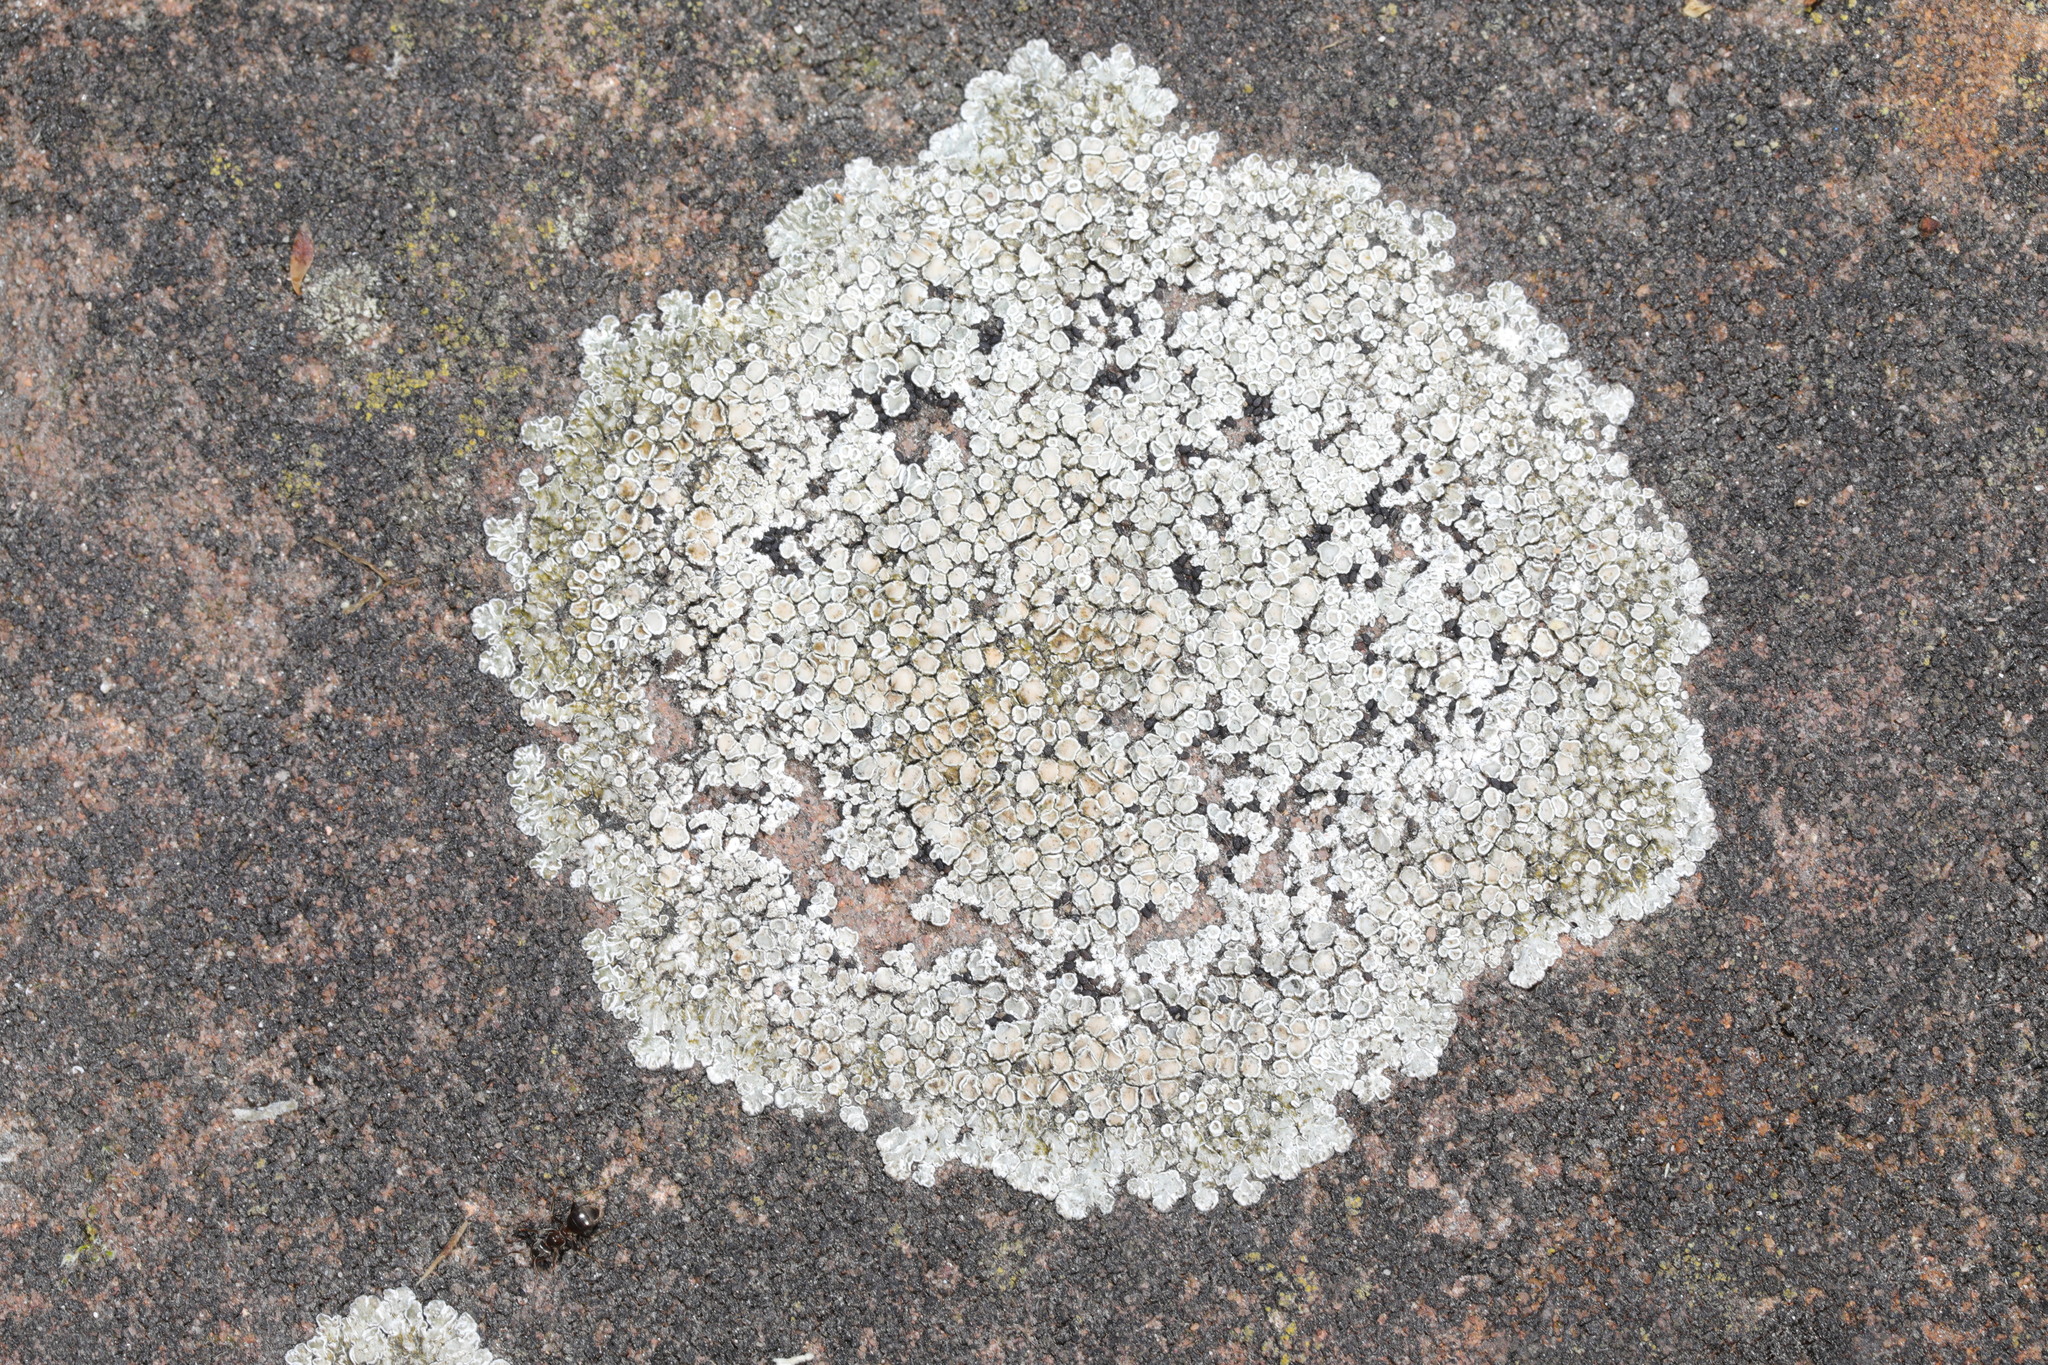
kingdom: Fungi
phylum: Ascomycota
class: Lecanoromycetes
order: Lecanorales
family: Lecanoraceae
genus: Protoparmeliopsis
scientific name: Protoparmeliopsis muralis
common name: Stonewall rim lichen
